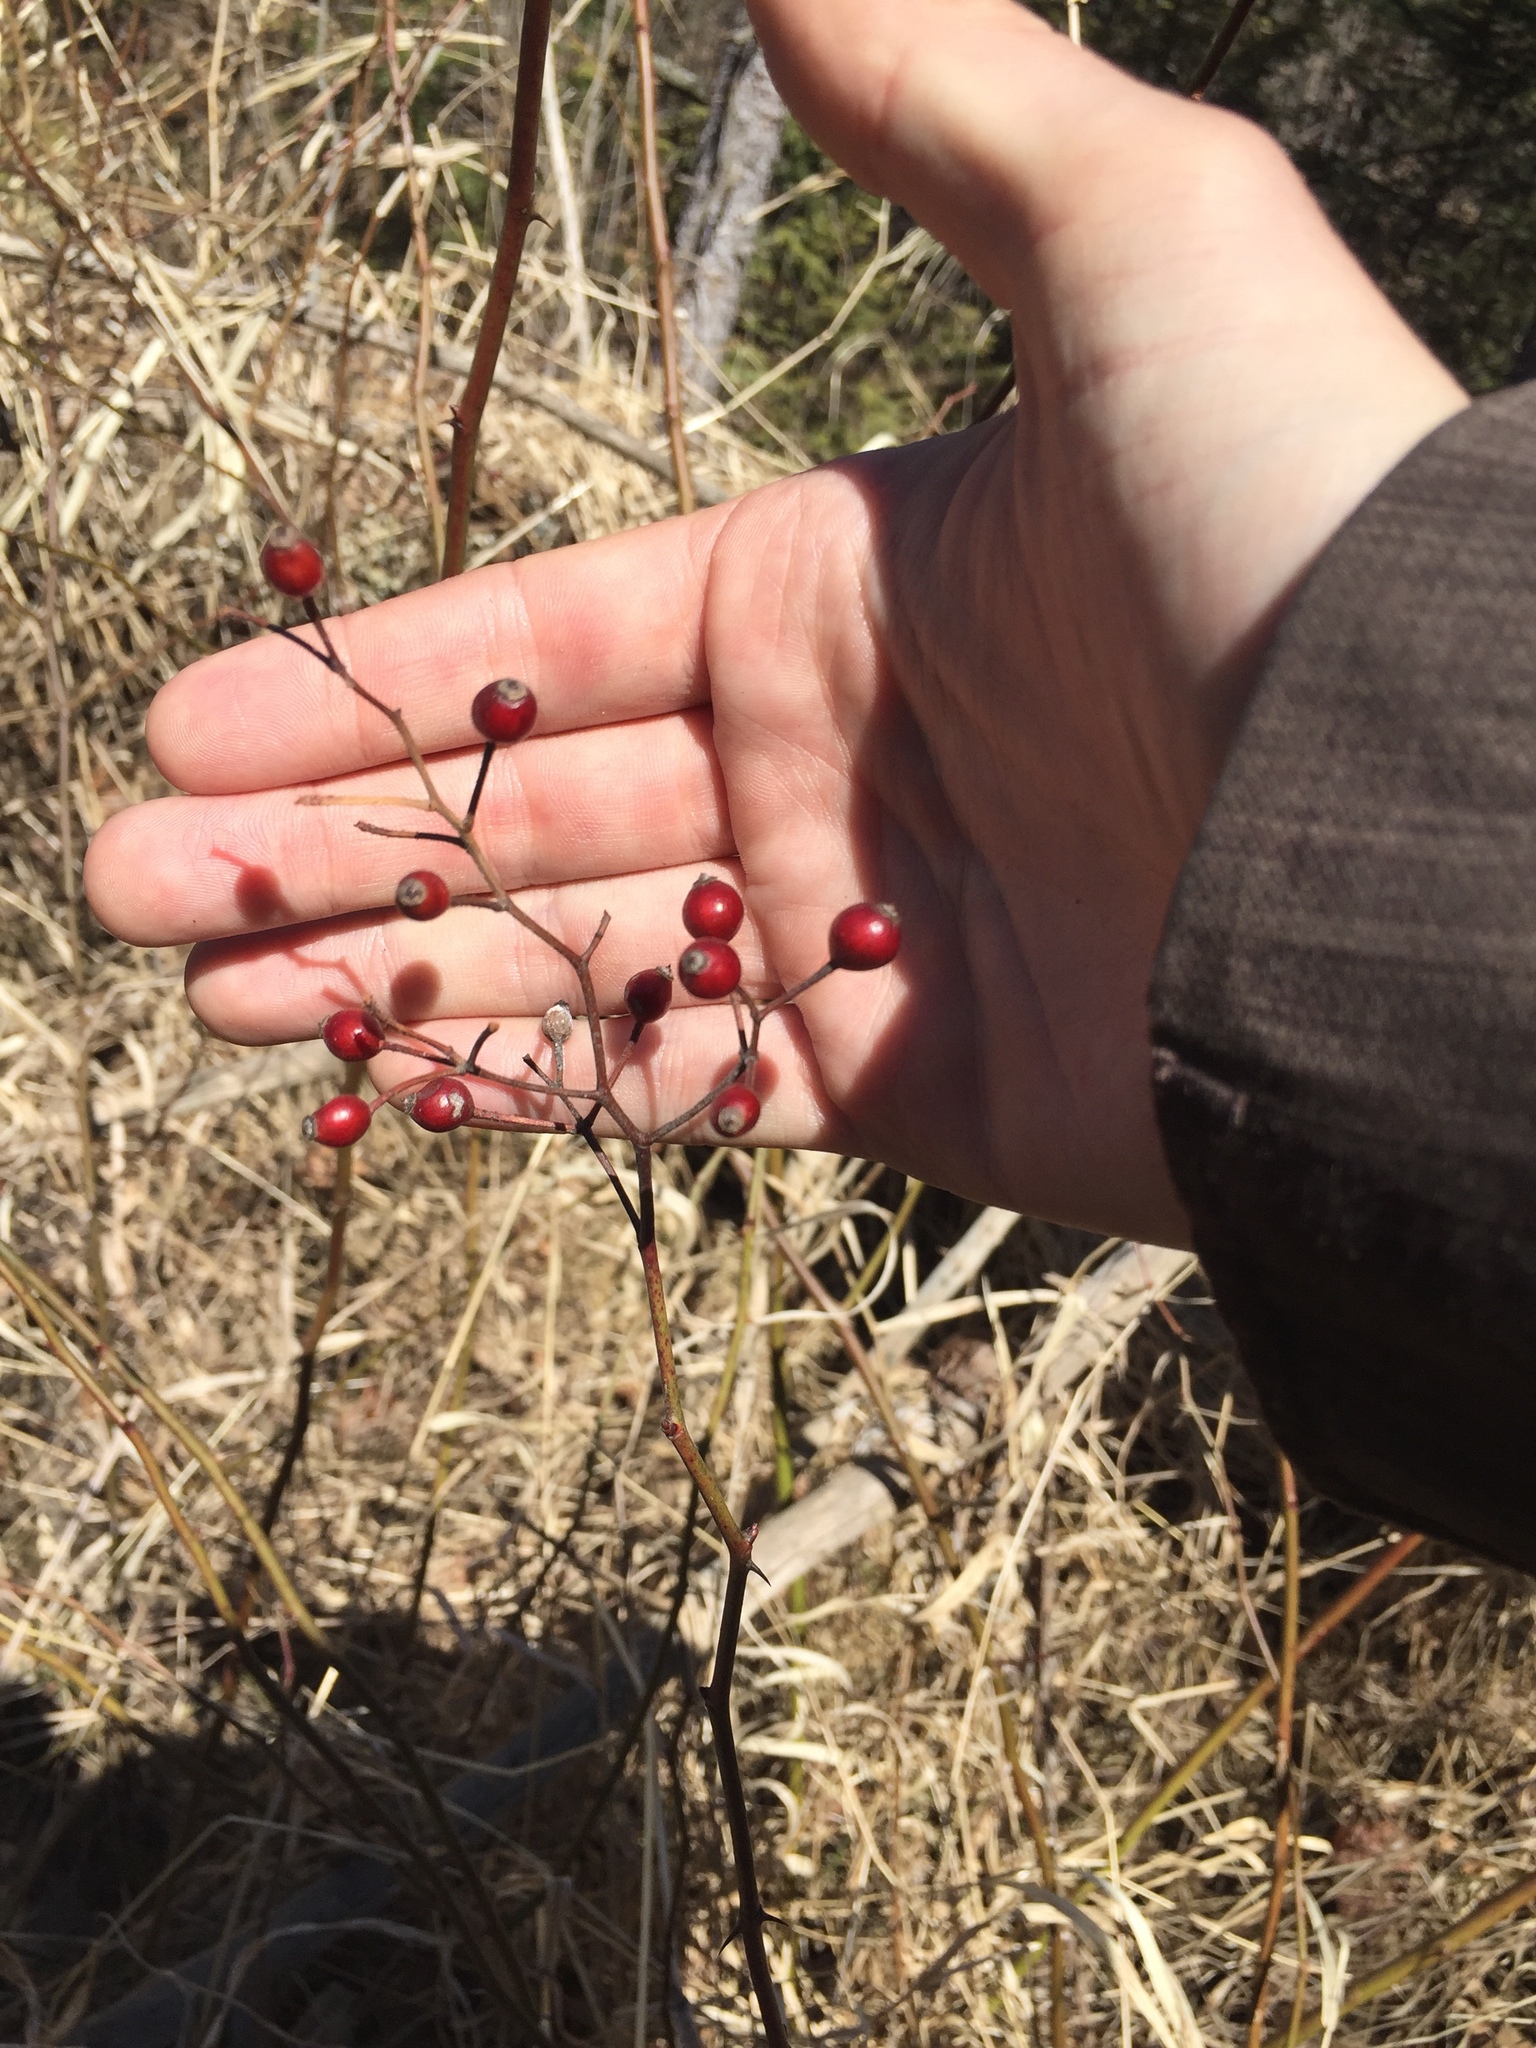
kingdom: Plantae
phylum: Tracheophyta
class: Magnoliopsida
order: Rosales
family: Rosaceae
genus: Rosa
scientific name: Rosa multiflora
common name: Multiflora rose
